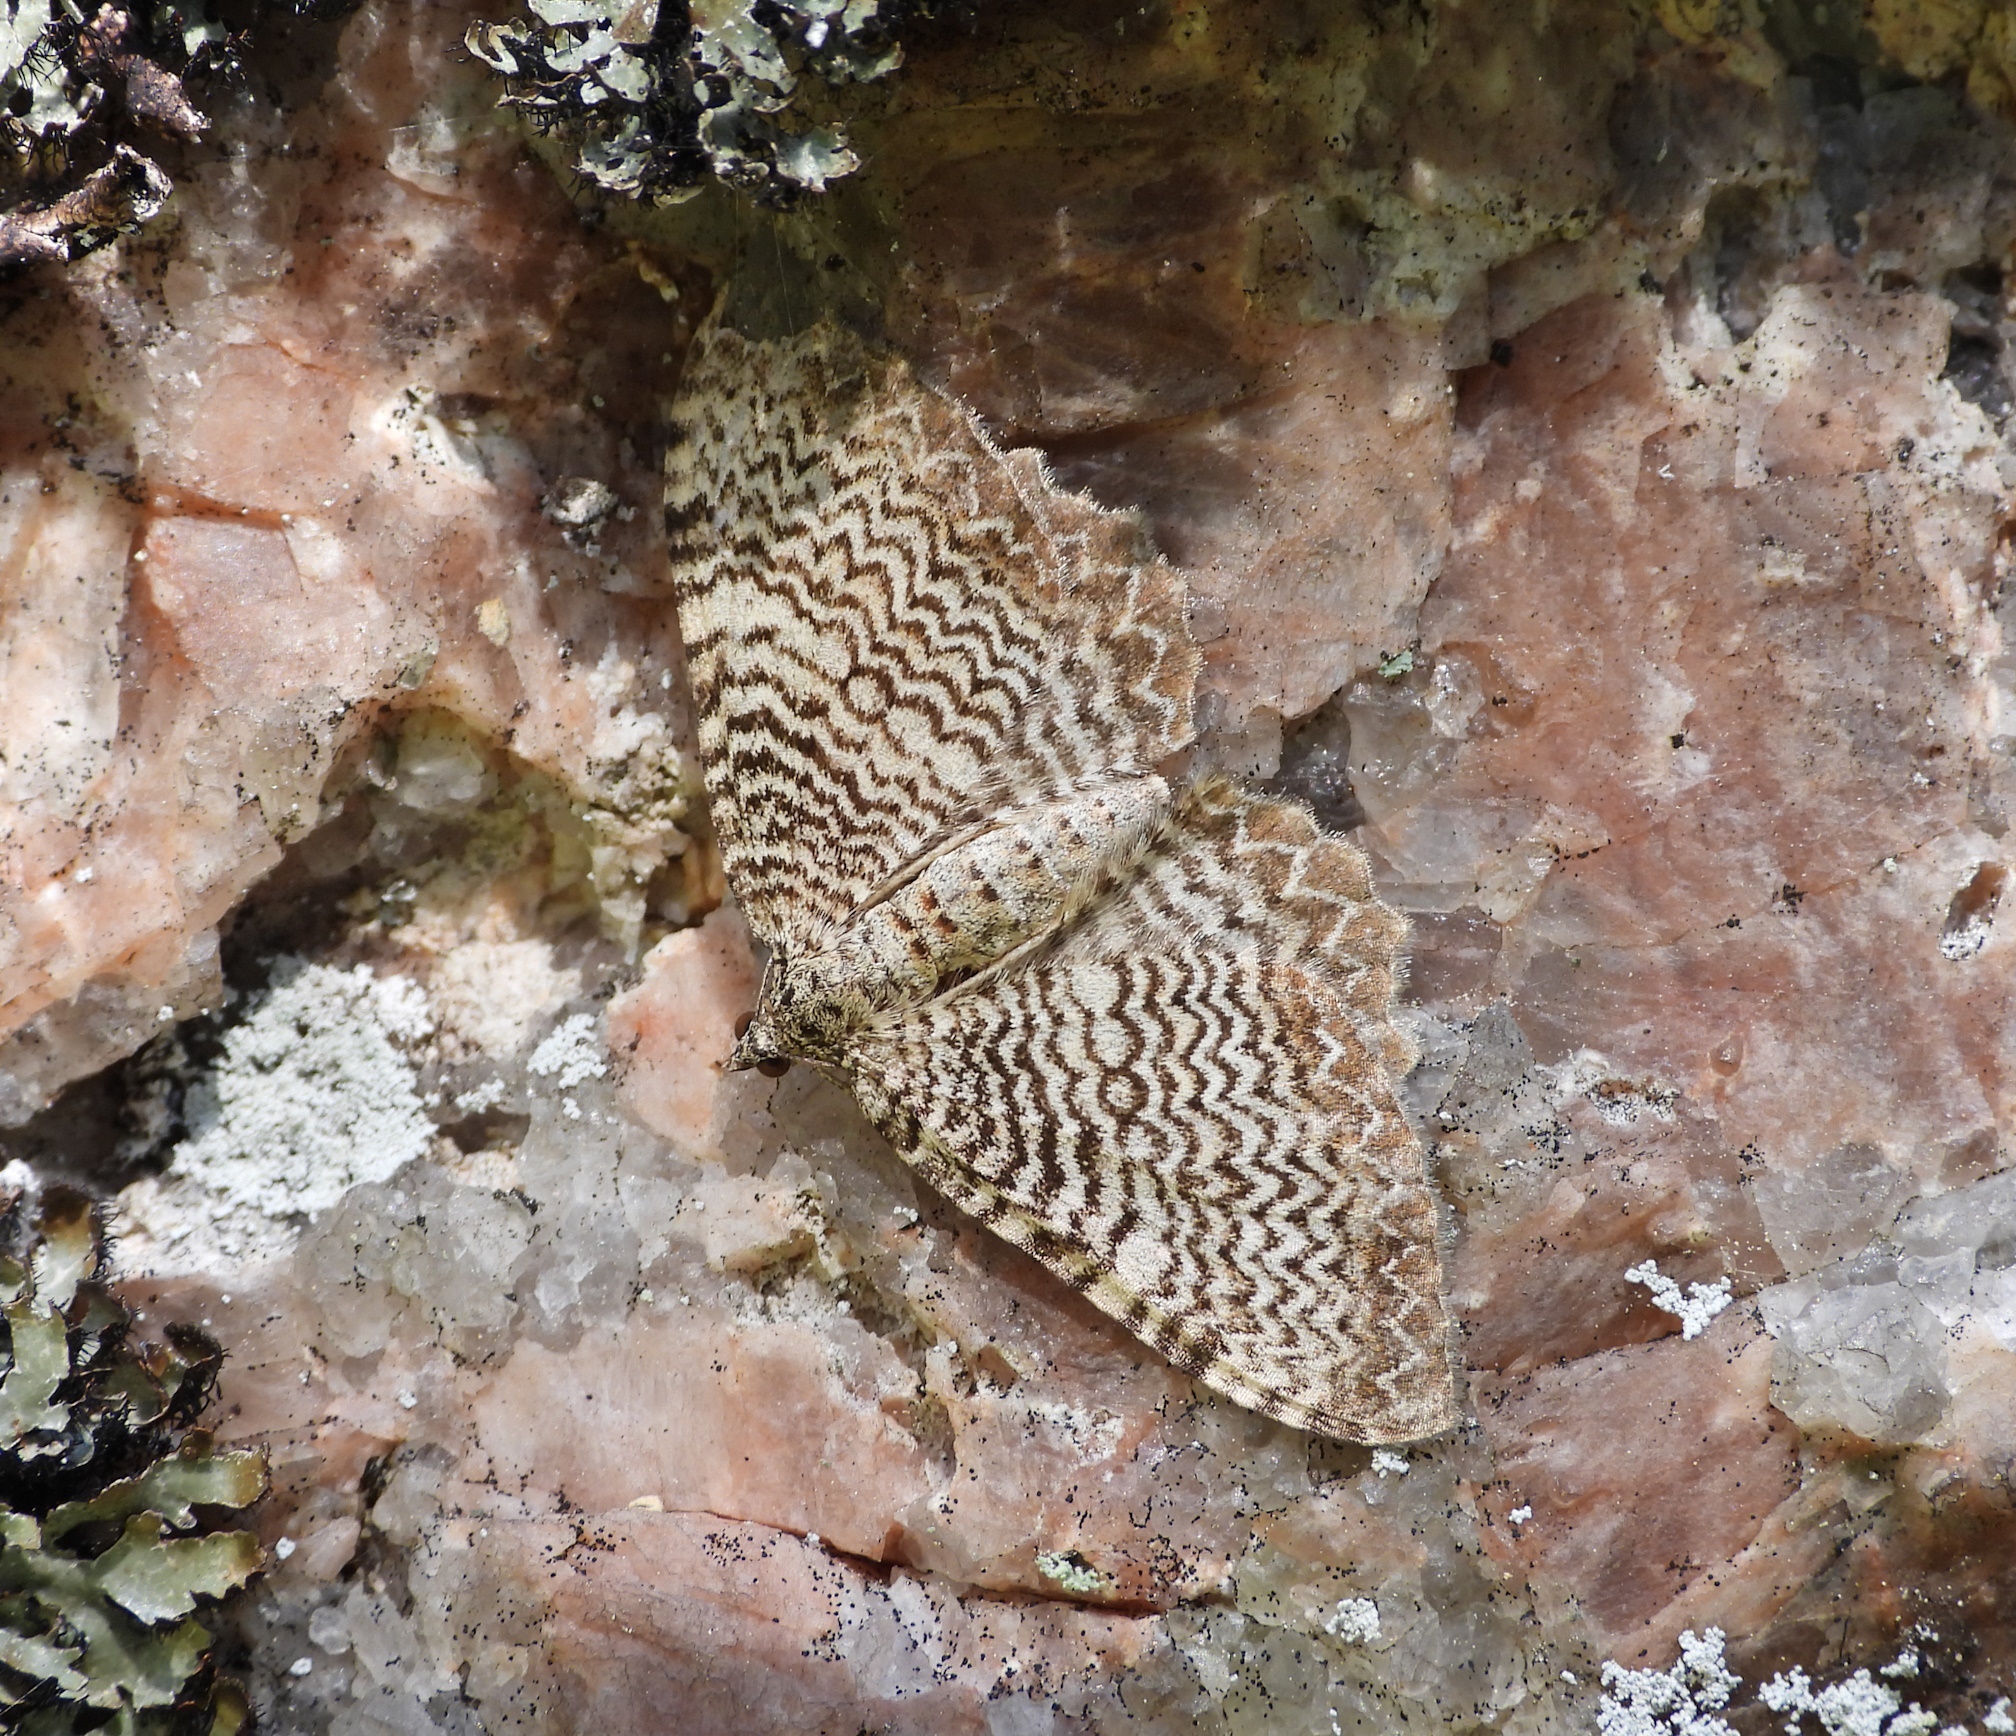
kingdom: Animalia
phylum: Arthropoda
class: Insecta
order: Lepidoptera
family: Geometridae
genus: Rheumaptera
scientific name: Rheumaptera undulata
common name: Scallop shell
